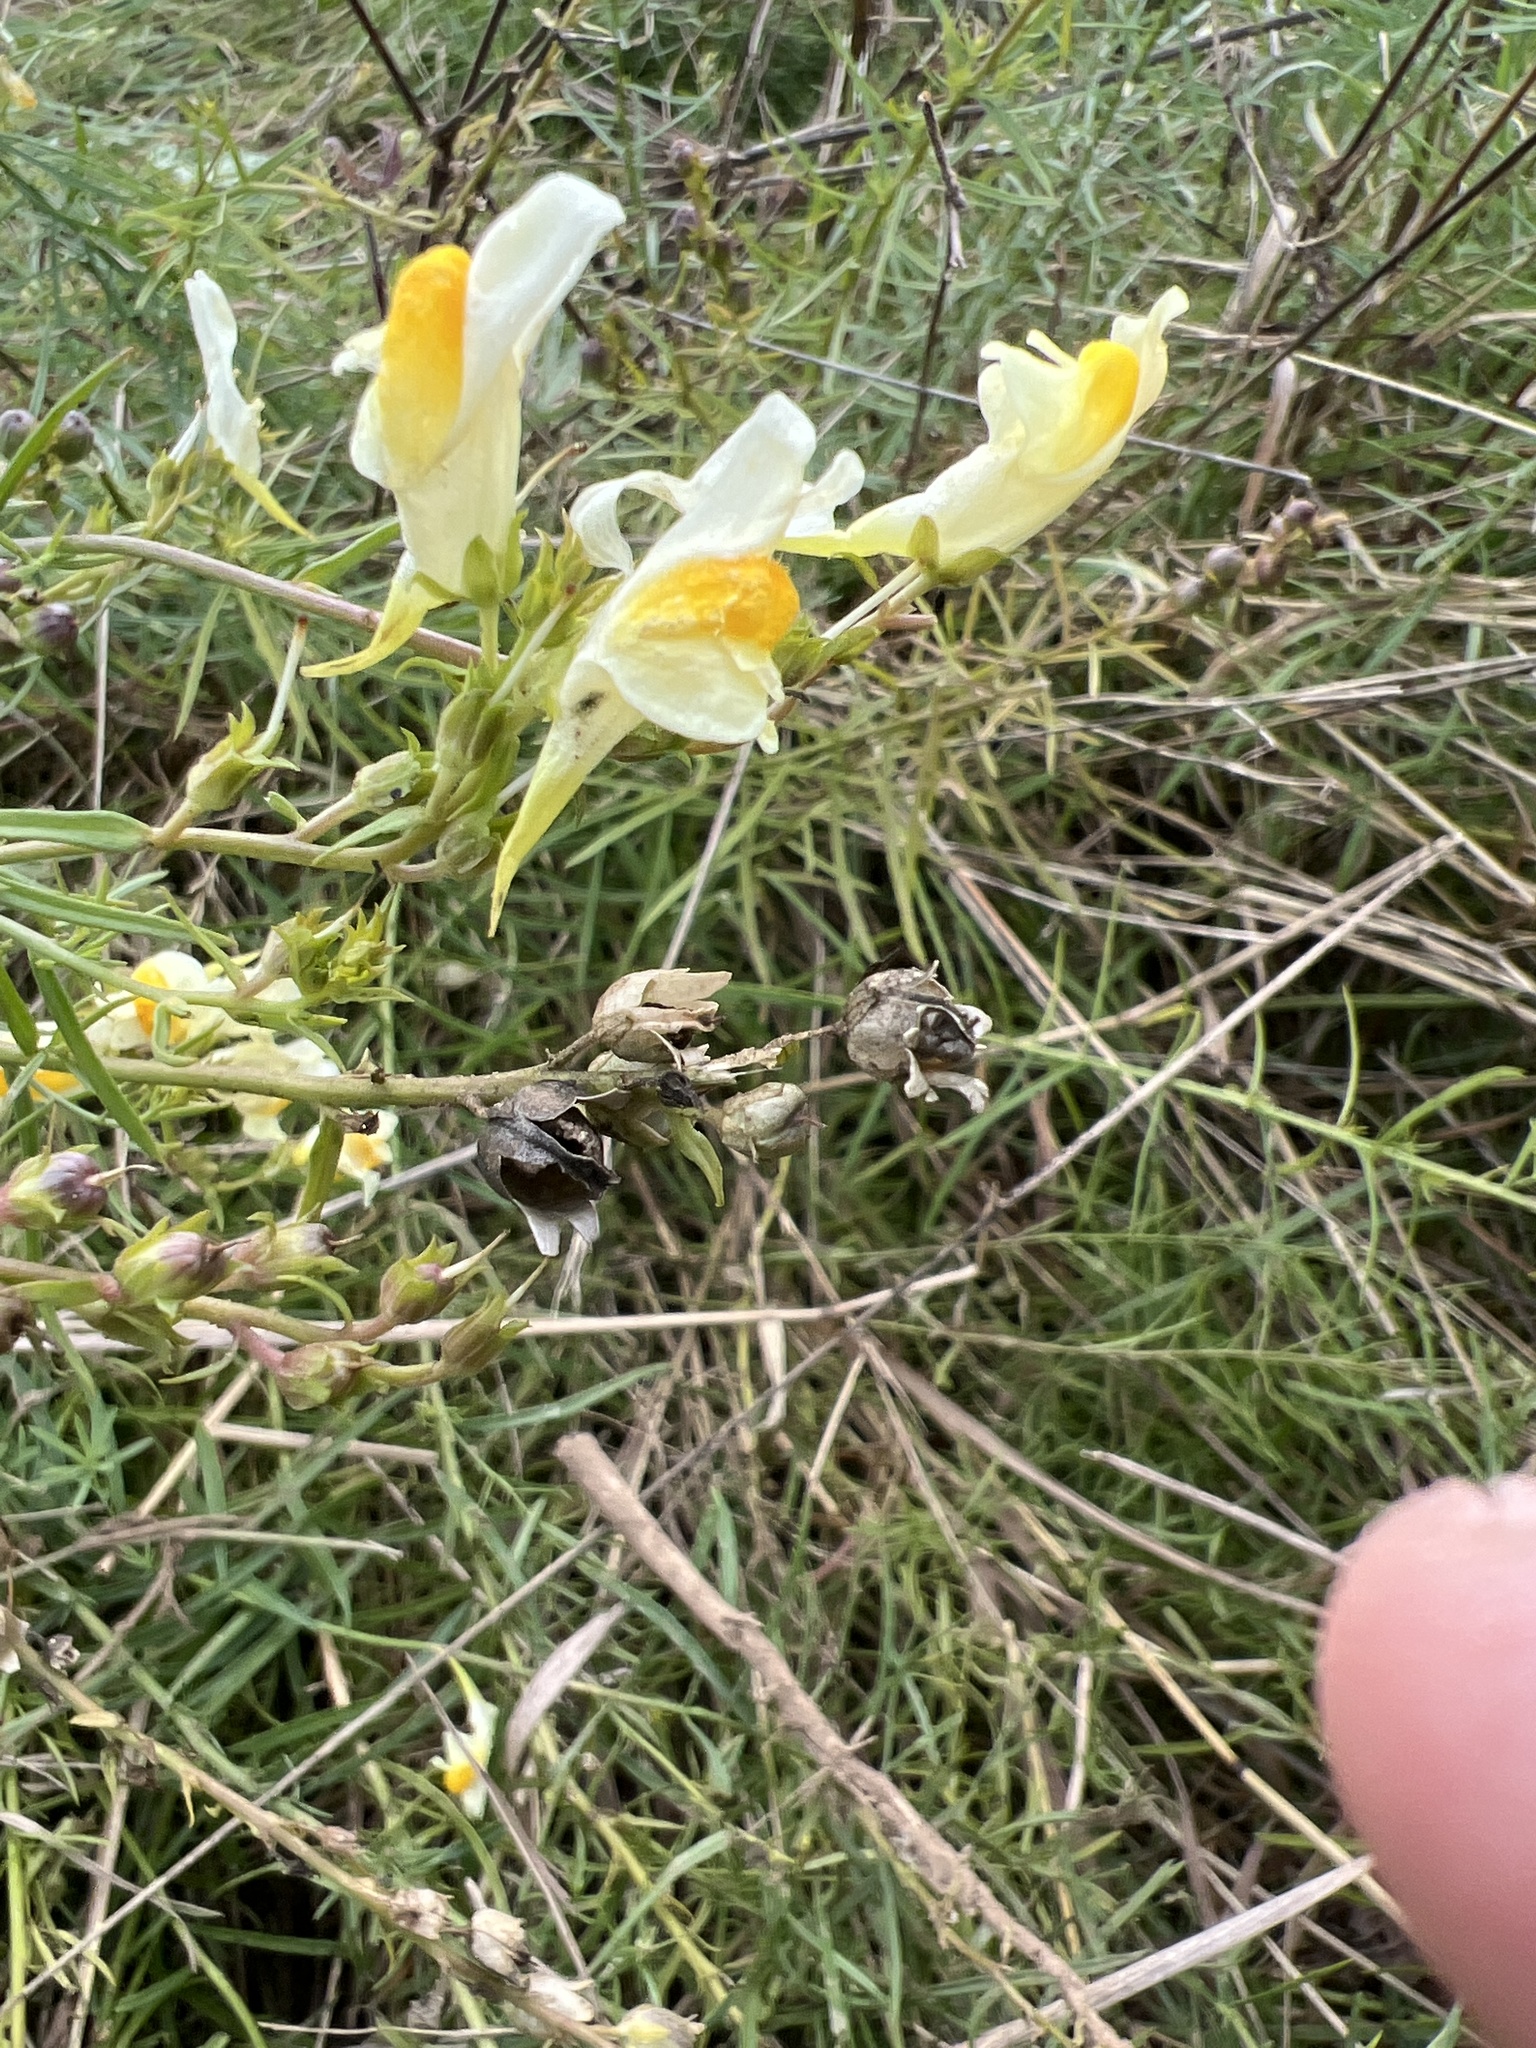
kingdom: Plantae
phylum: Tracheophyta
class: Magnoliopsida
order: Lamiales
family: Plantaginaceae
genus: Linaria
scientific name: Linaria vulgaris
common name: Butter and eggs
